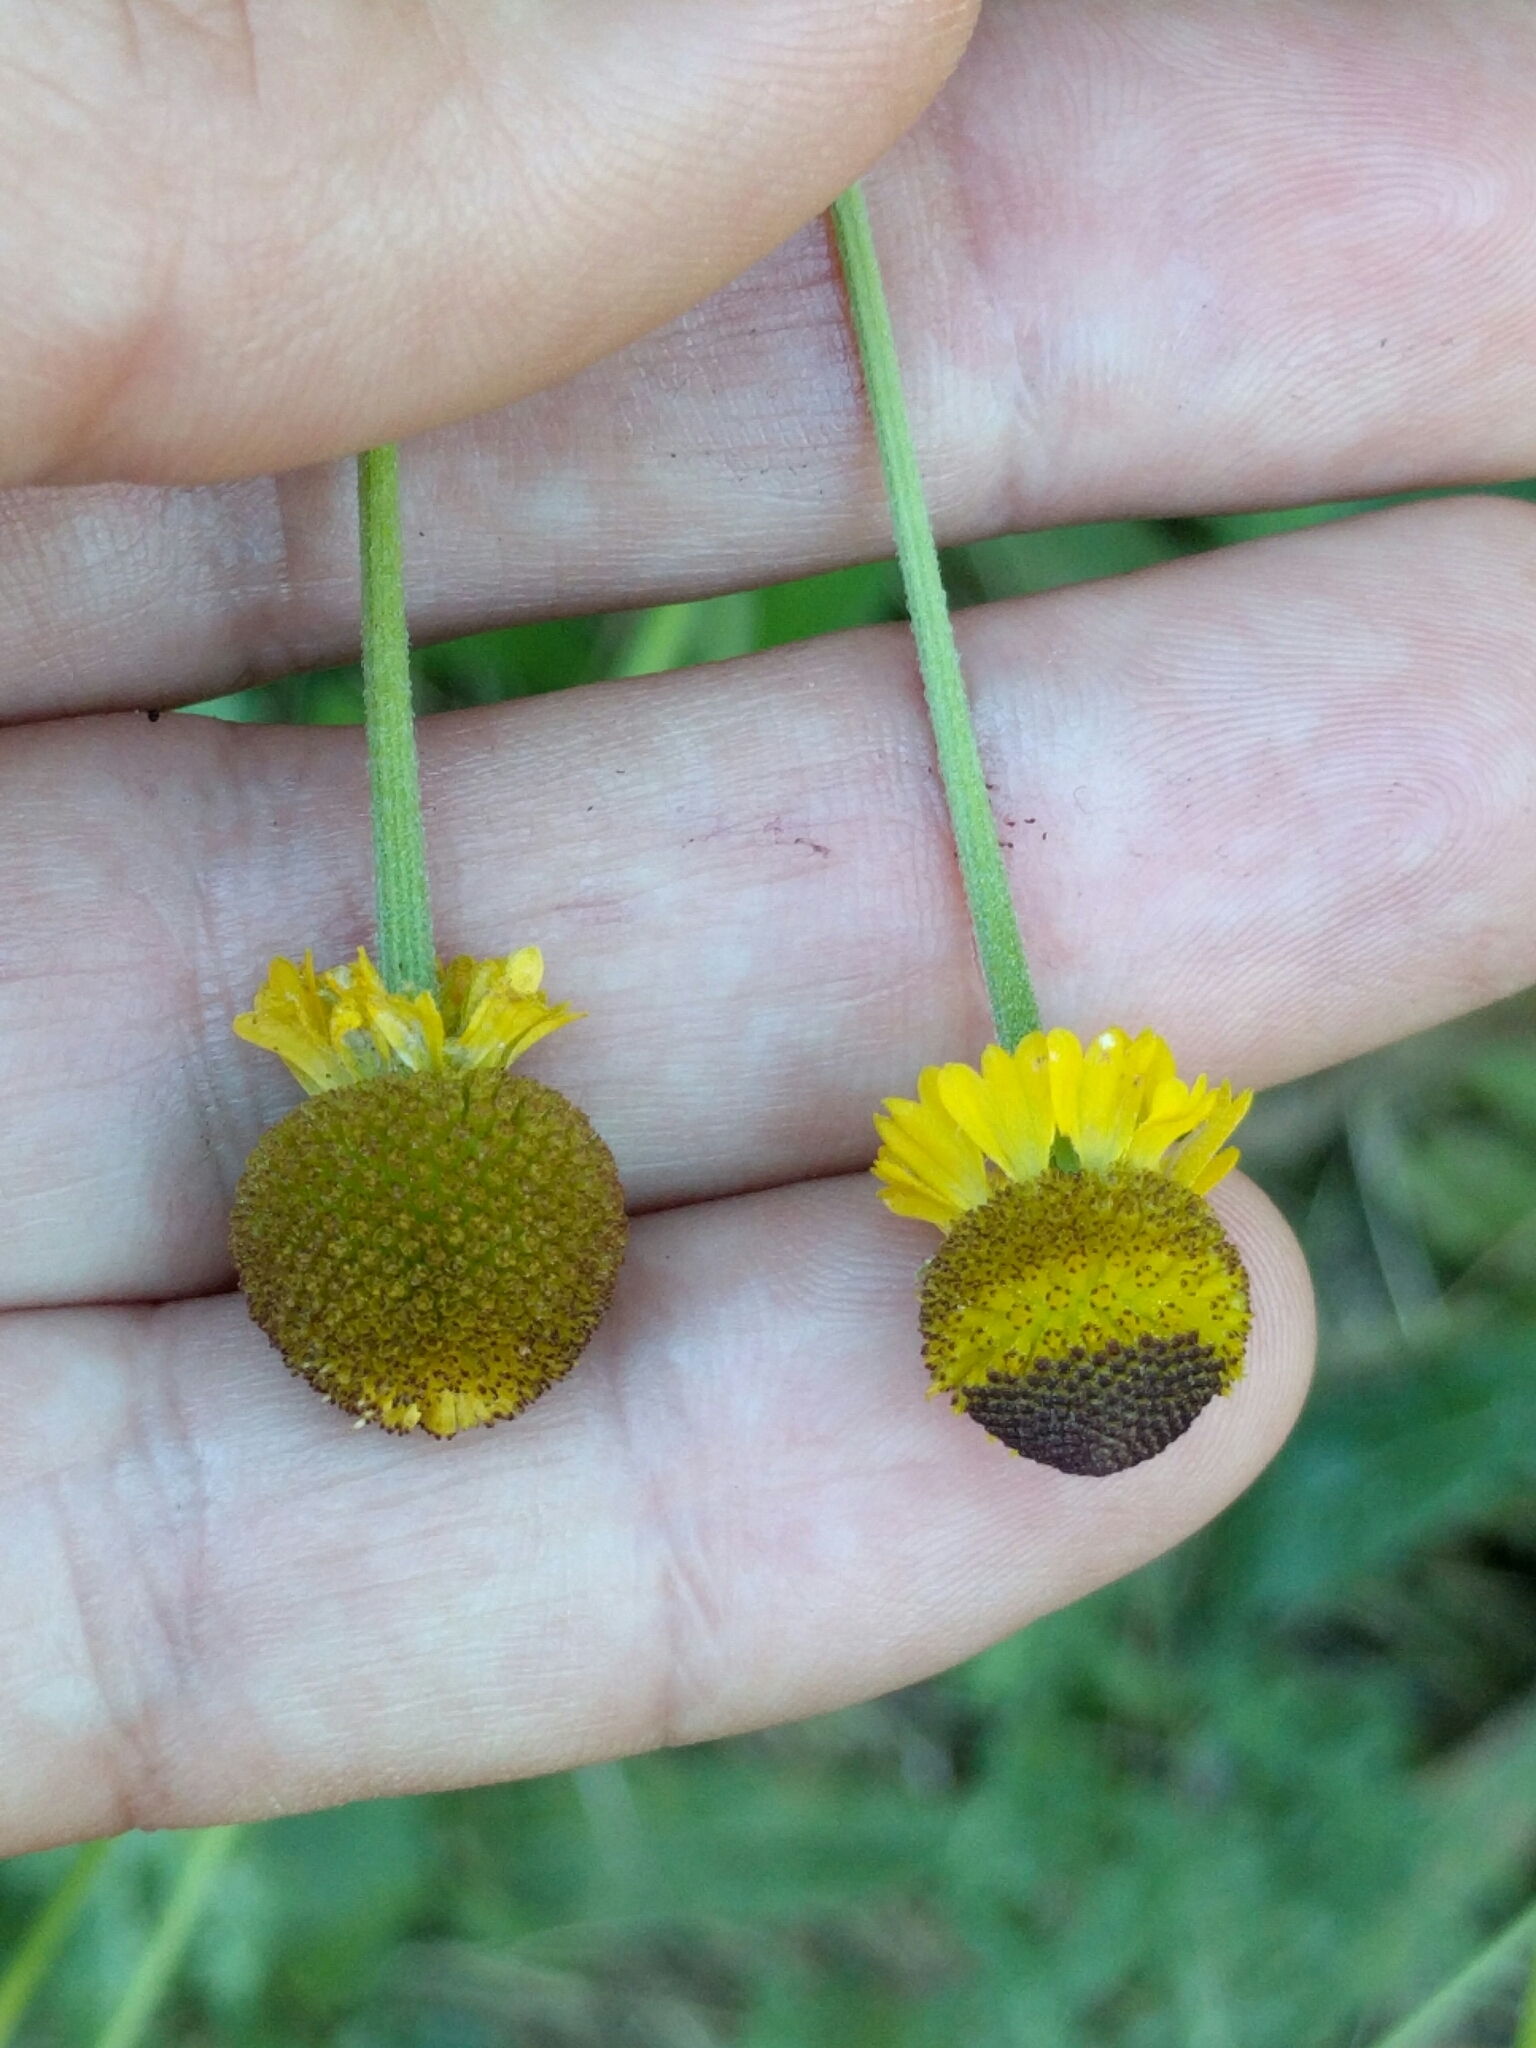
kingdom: Plantae
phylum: Tracheophyta
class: Magnoliopsida
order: Asterales
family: Asteraceae
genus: Helenium
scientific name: Helenium puberulum
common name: Sneezewort
